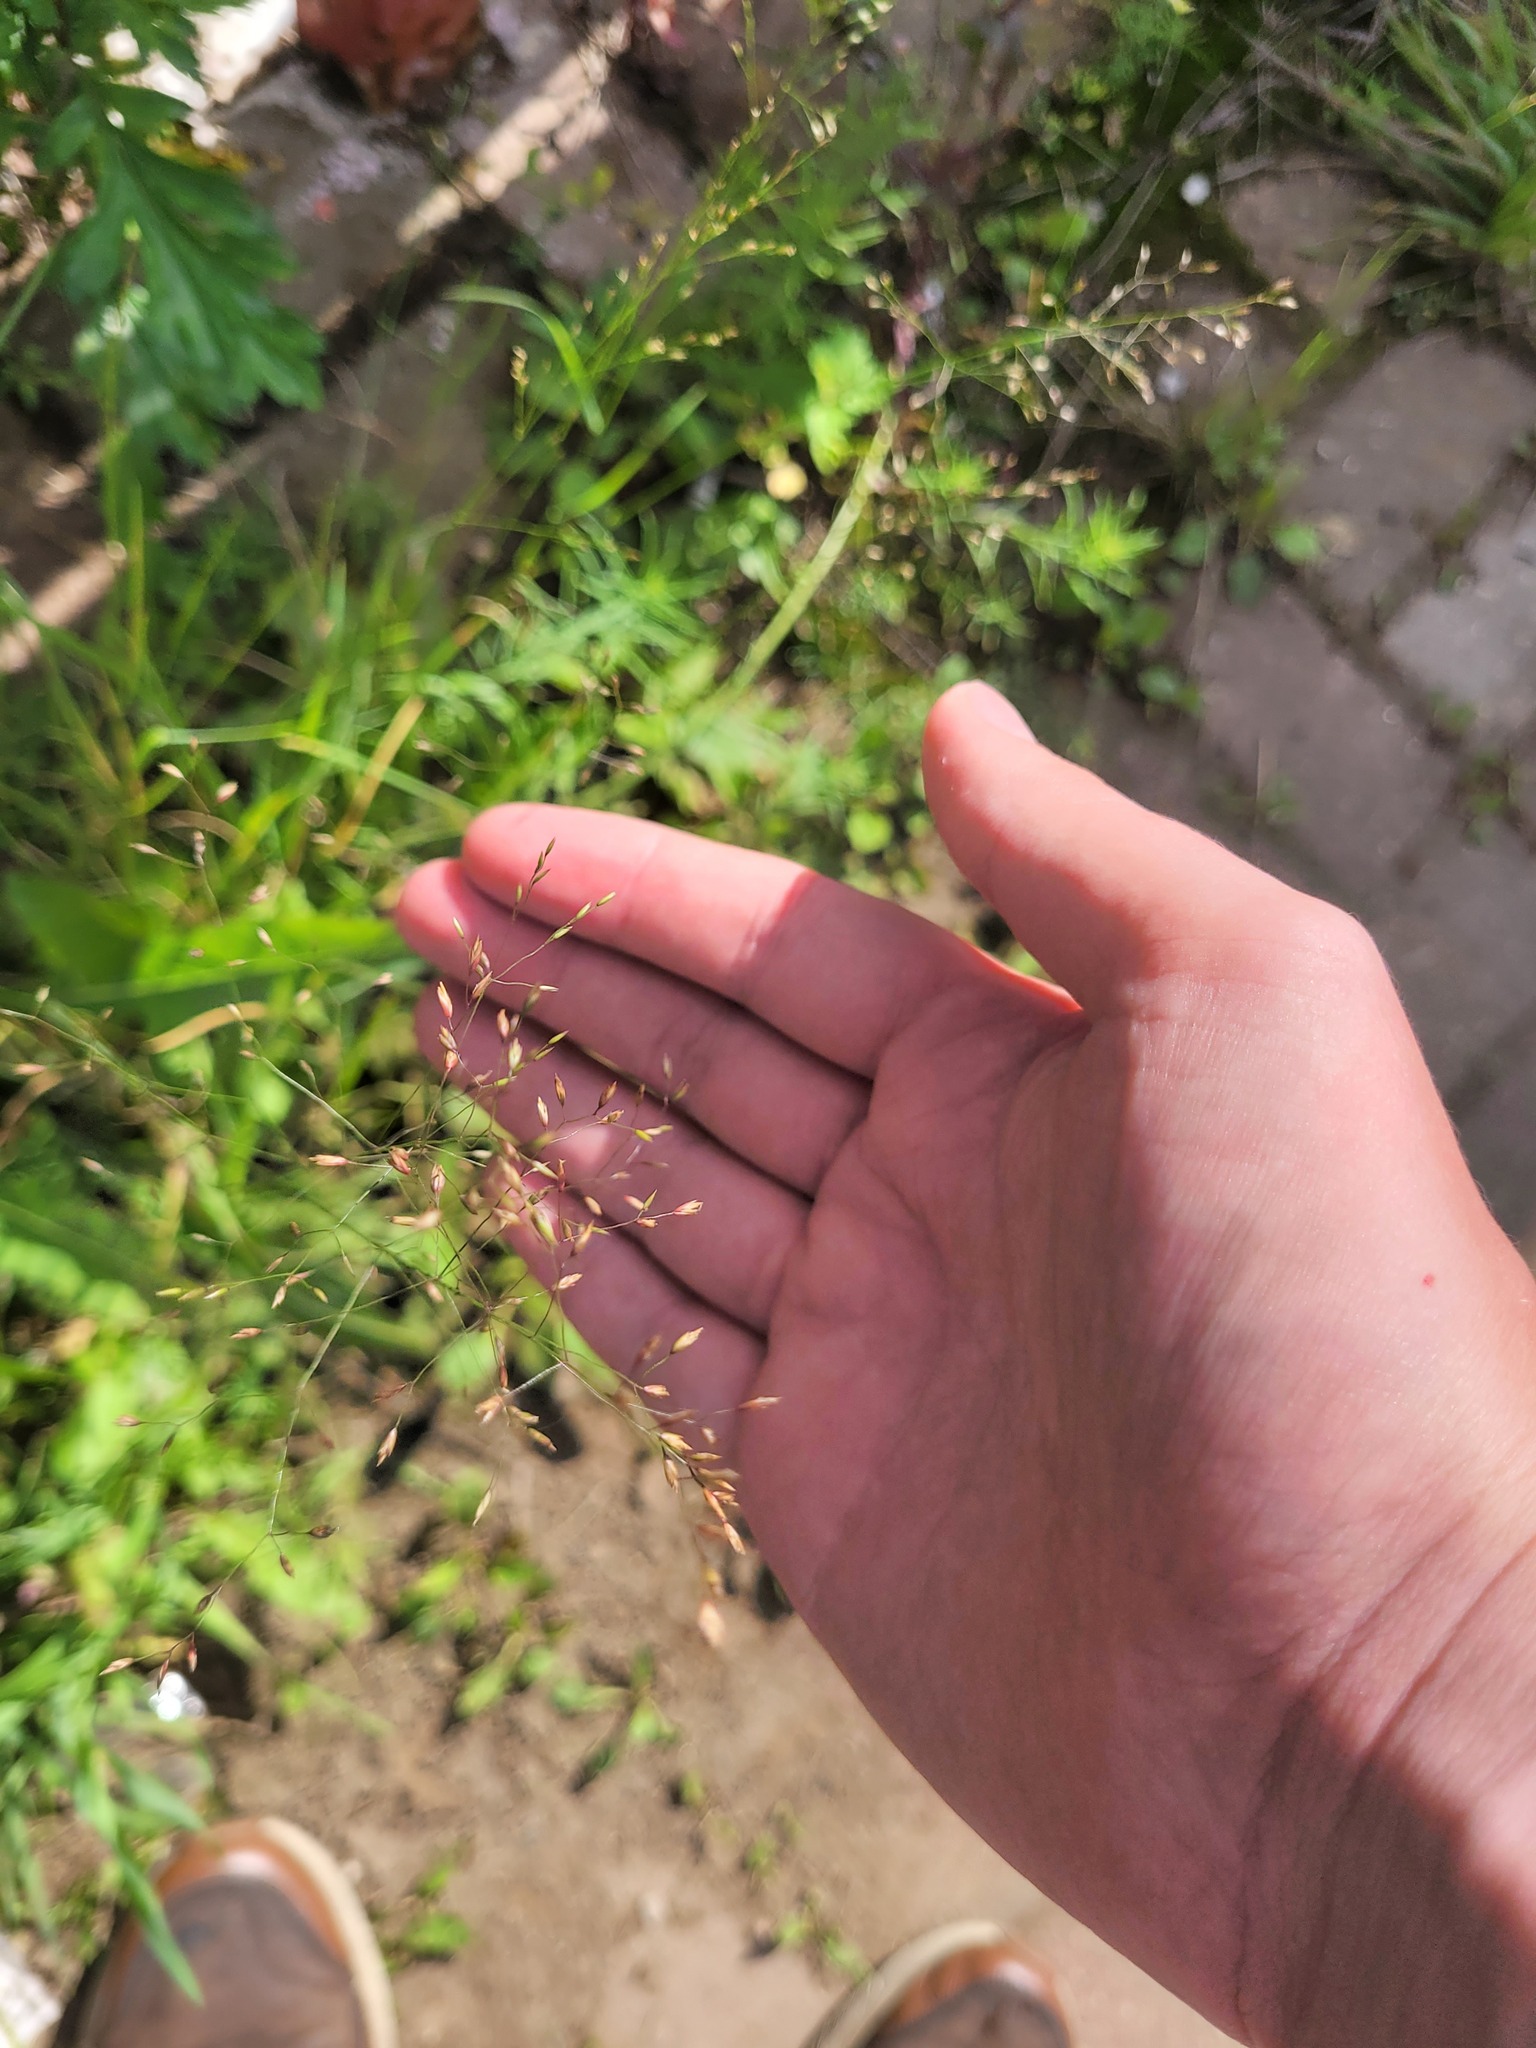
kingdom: Plantae
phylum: Tracheophyta
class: Liliopsida
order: Poales
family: Poaceae
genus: Poa
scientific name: Poa palustris
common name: Swamp meadow-grass
